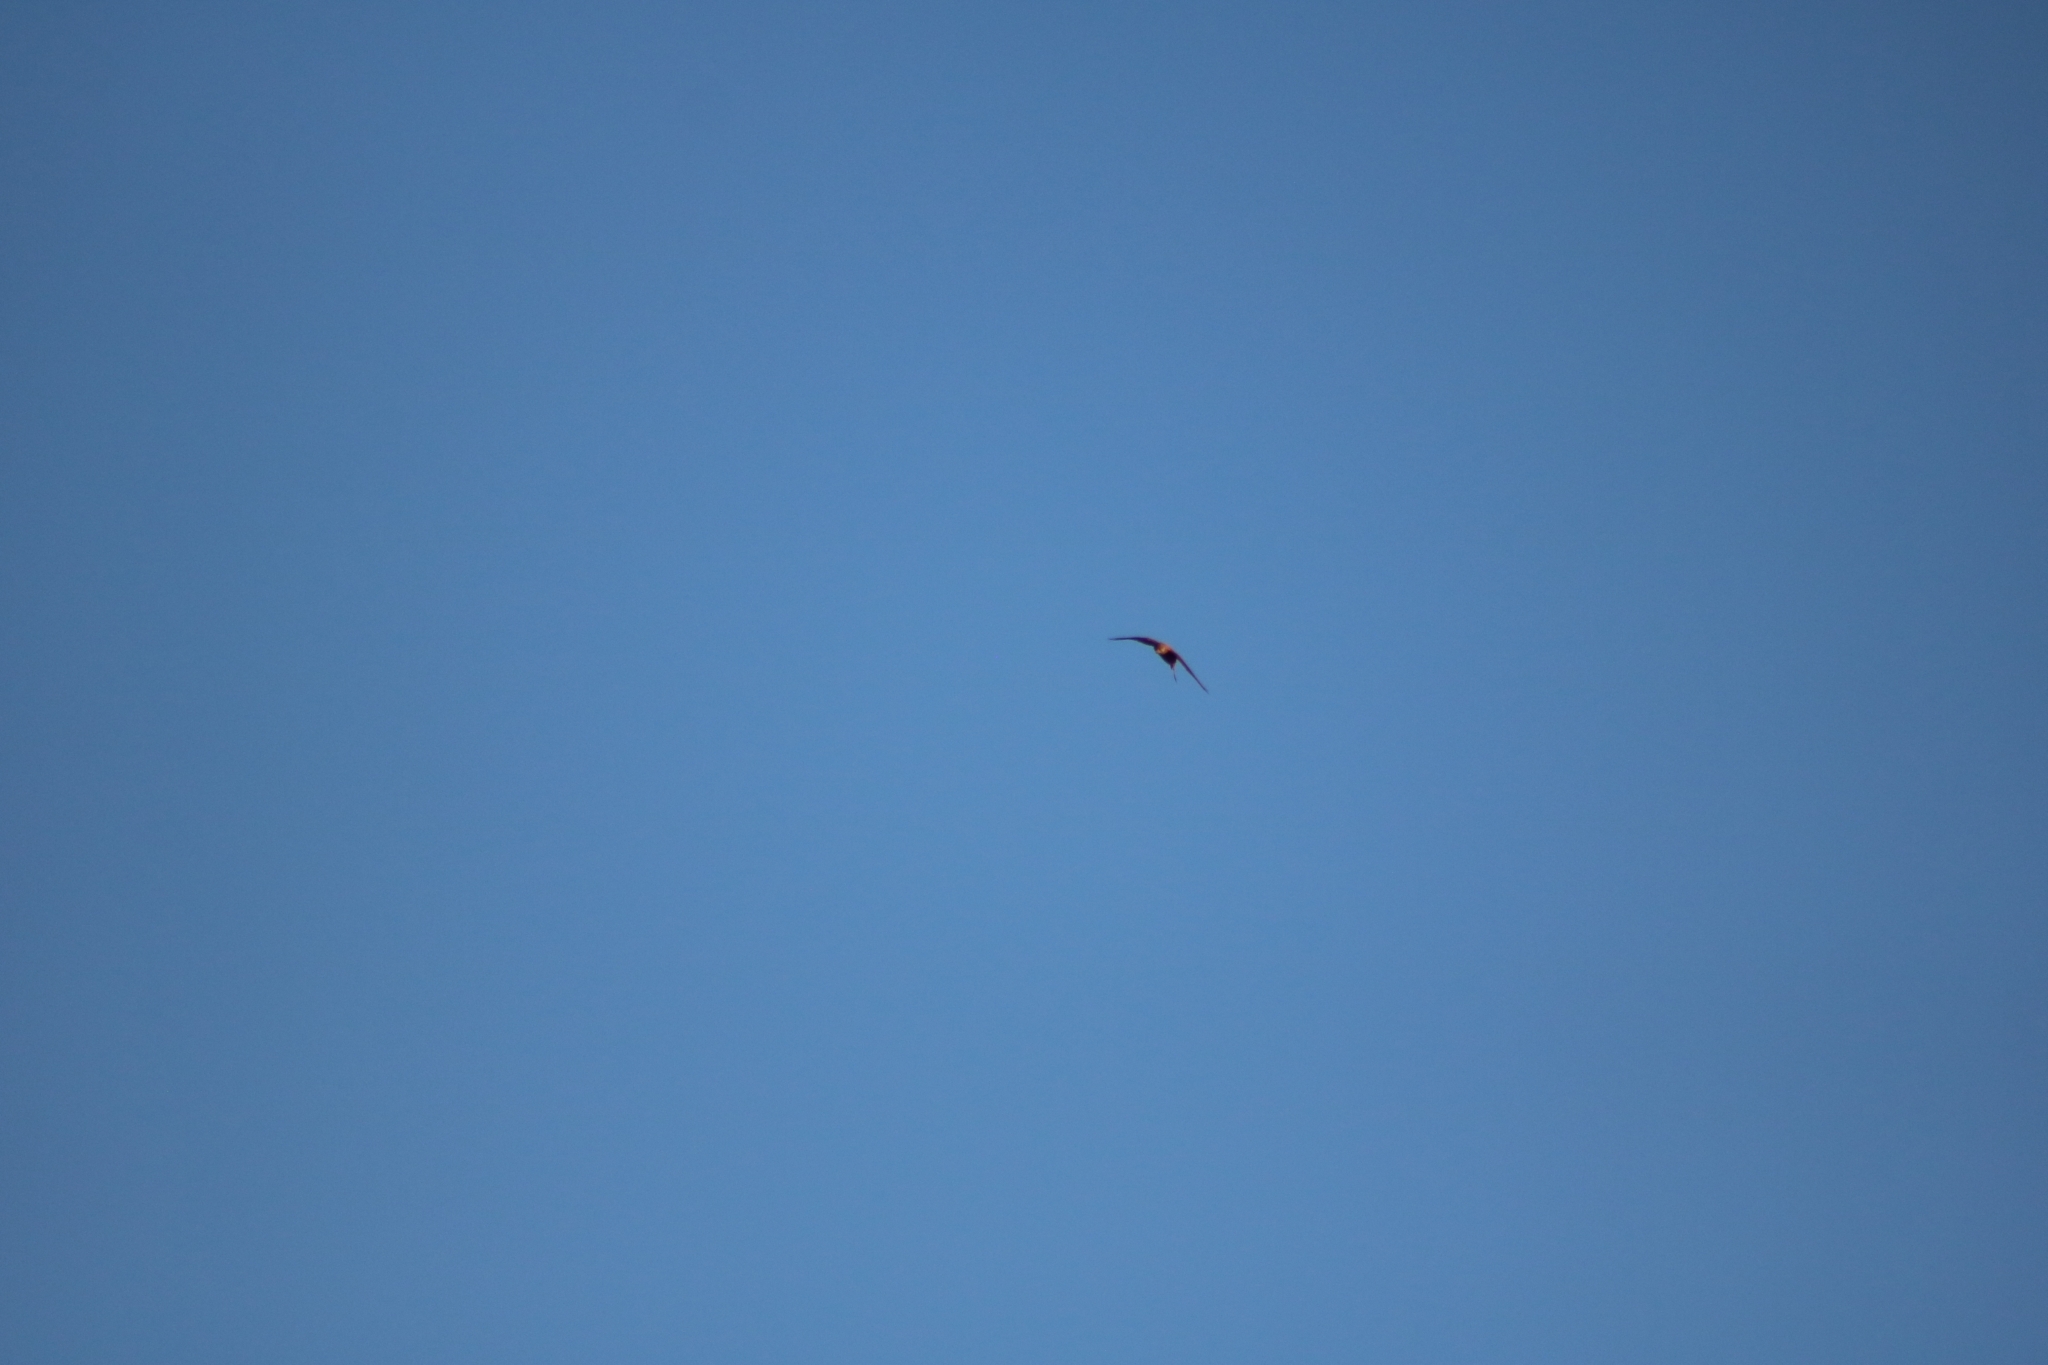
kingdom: Animalia
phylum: Chordata
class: Aves
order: Falconiformes
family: Falconidae
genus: Falco
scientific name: Falco tinnunculus
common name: Common kestrel
